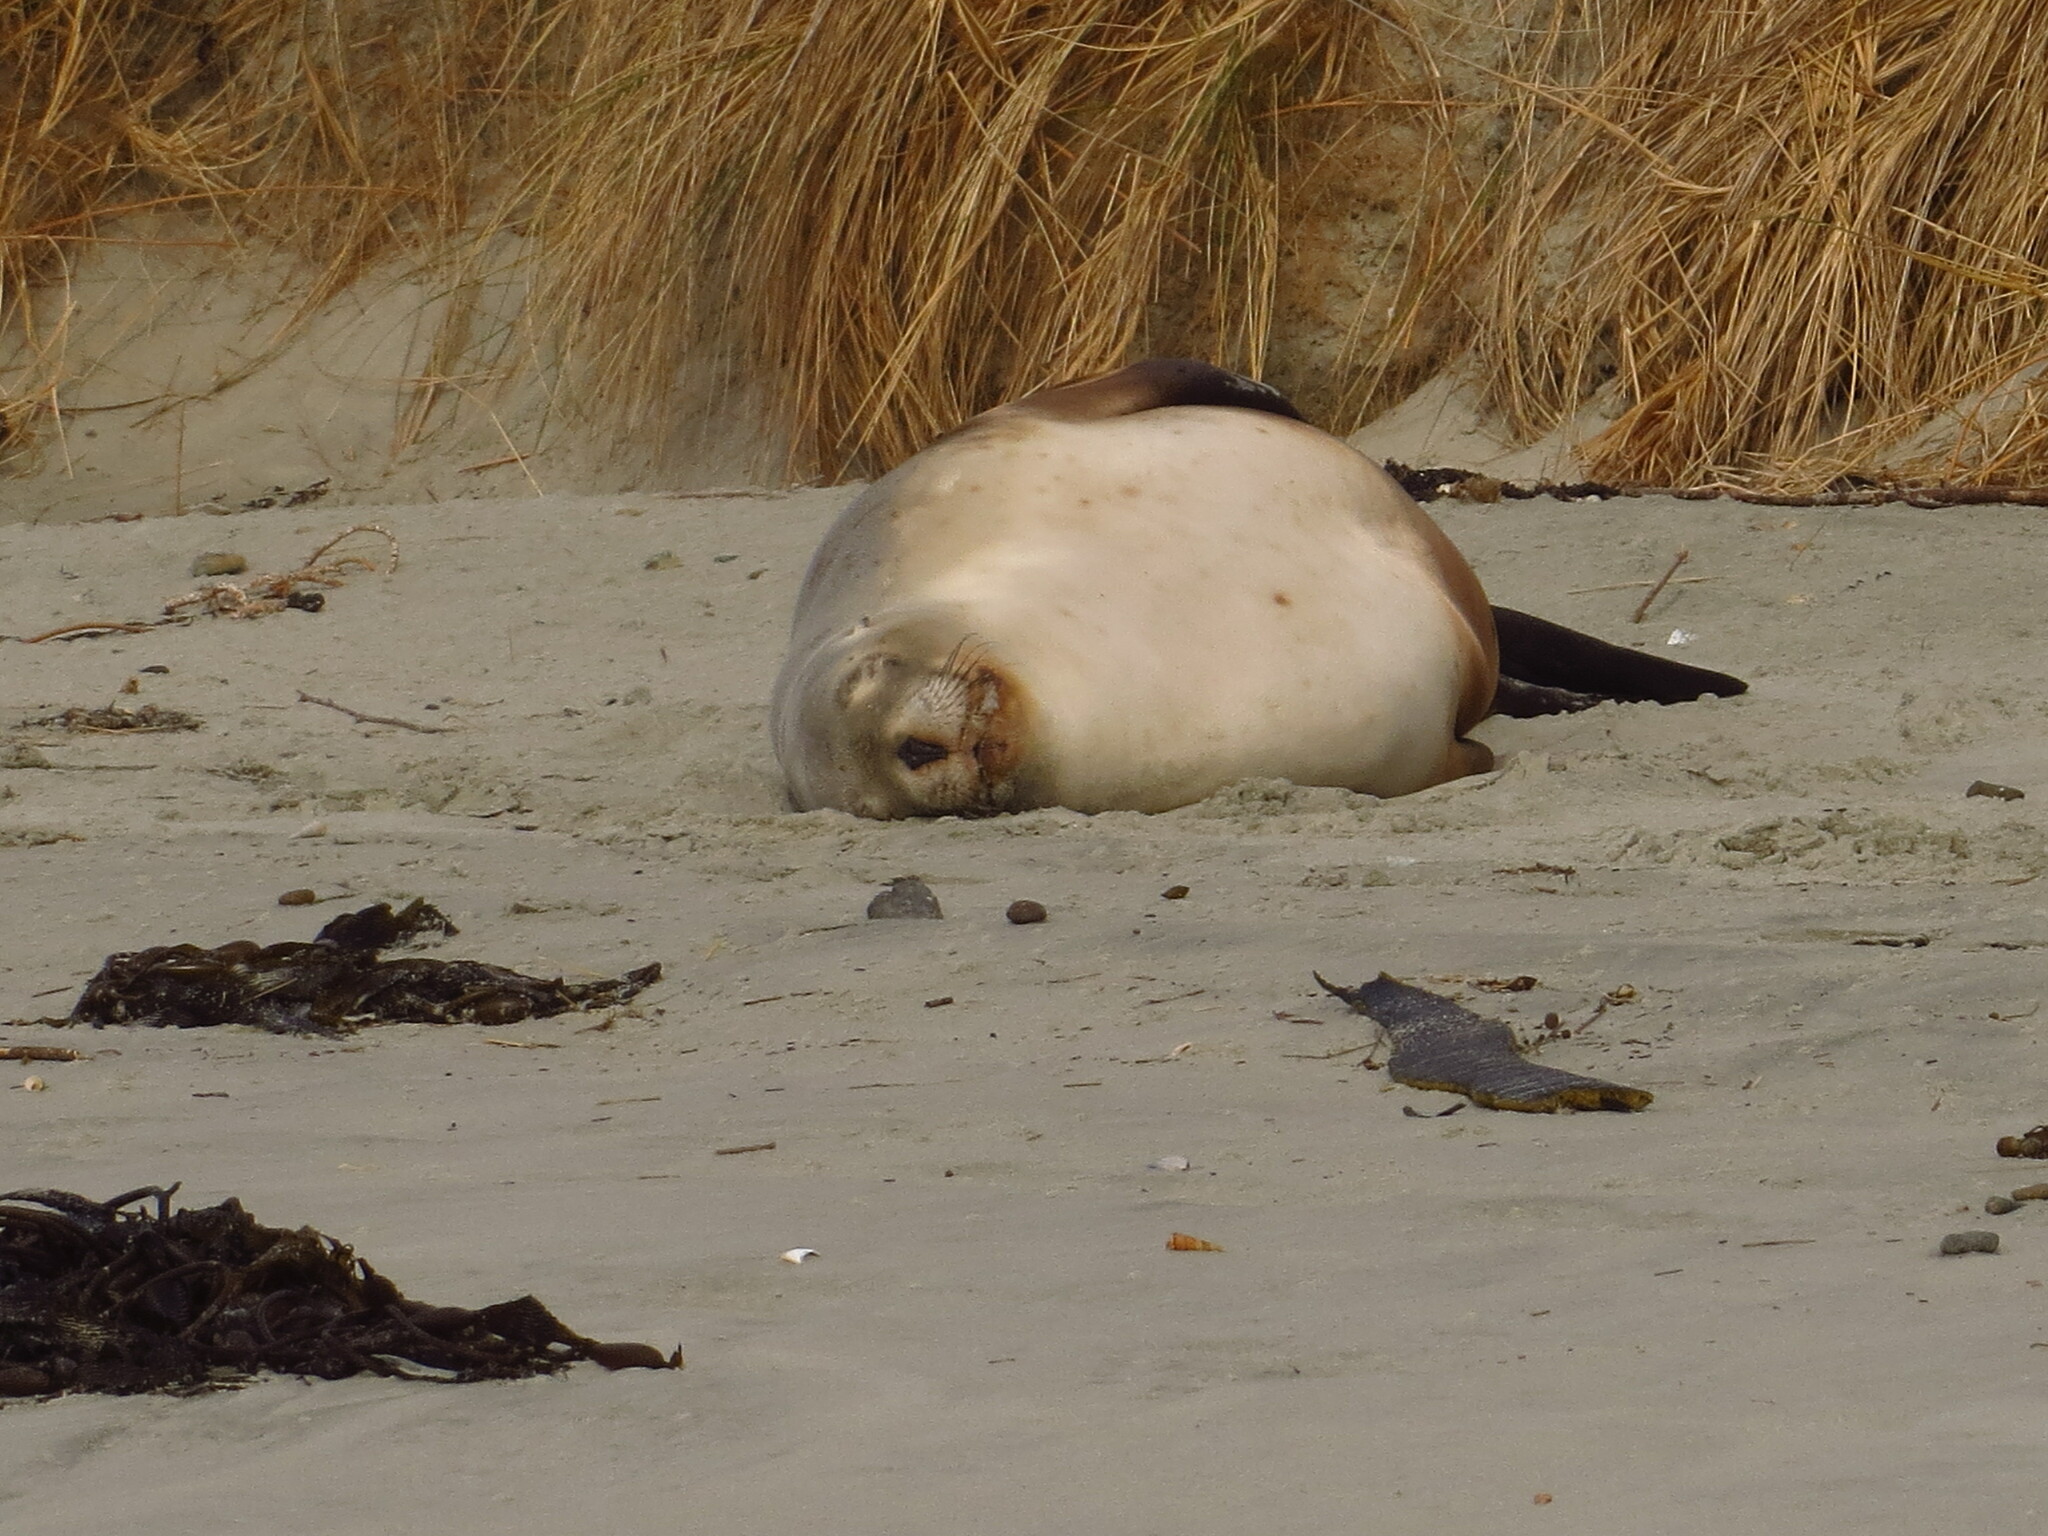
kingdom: Animalia
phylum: Chordata
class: Mammalia
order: Carnivora
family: Otariidae
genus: Phocarctos
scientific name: Phocarctos hookeri
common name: New zealand sea lion
